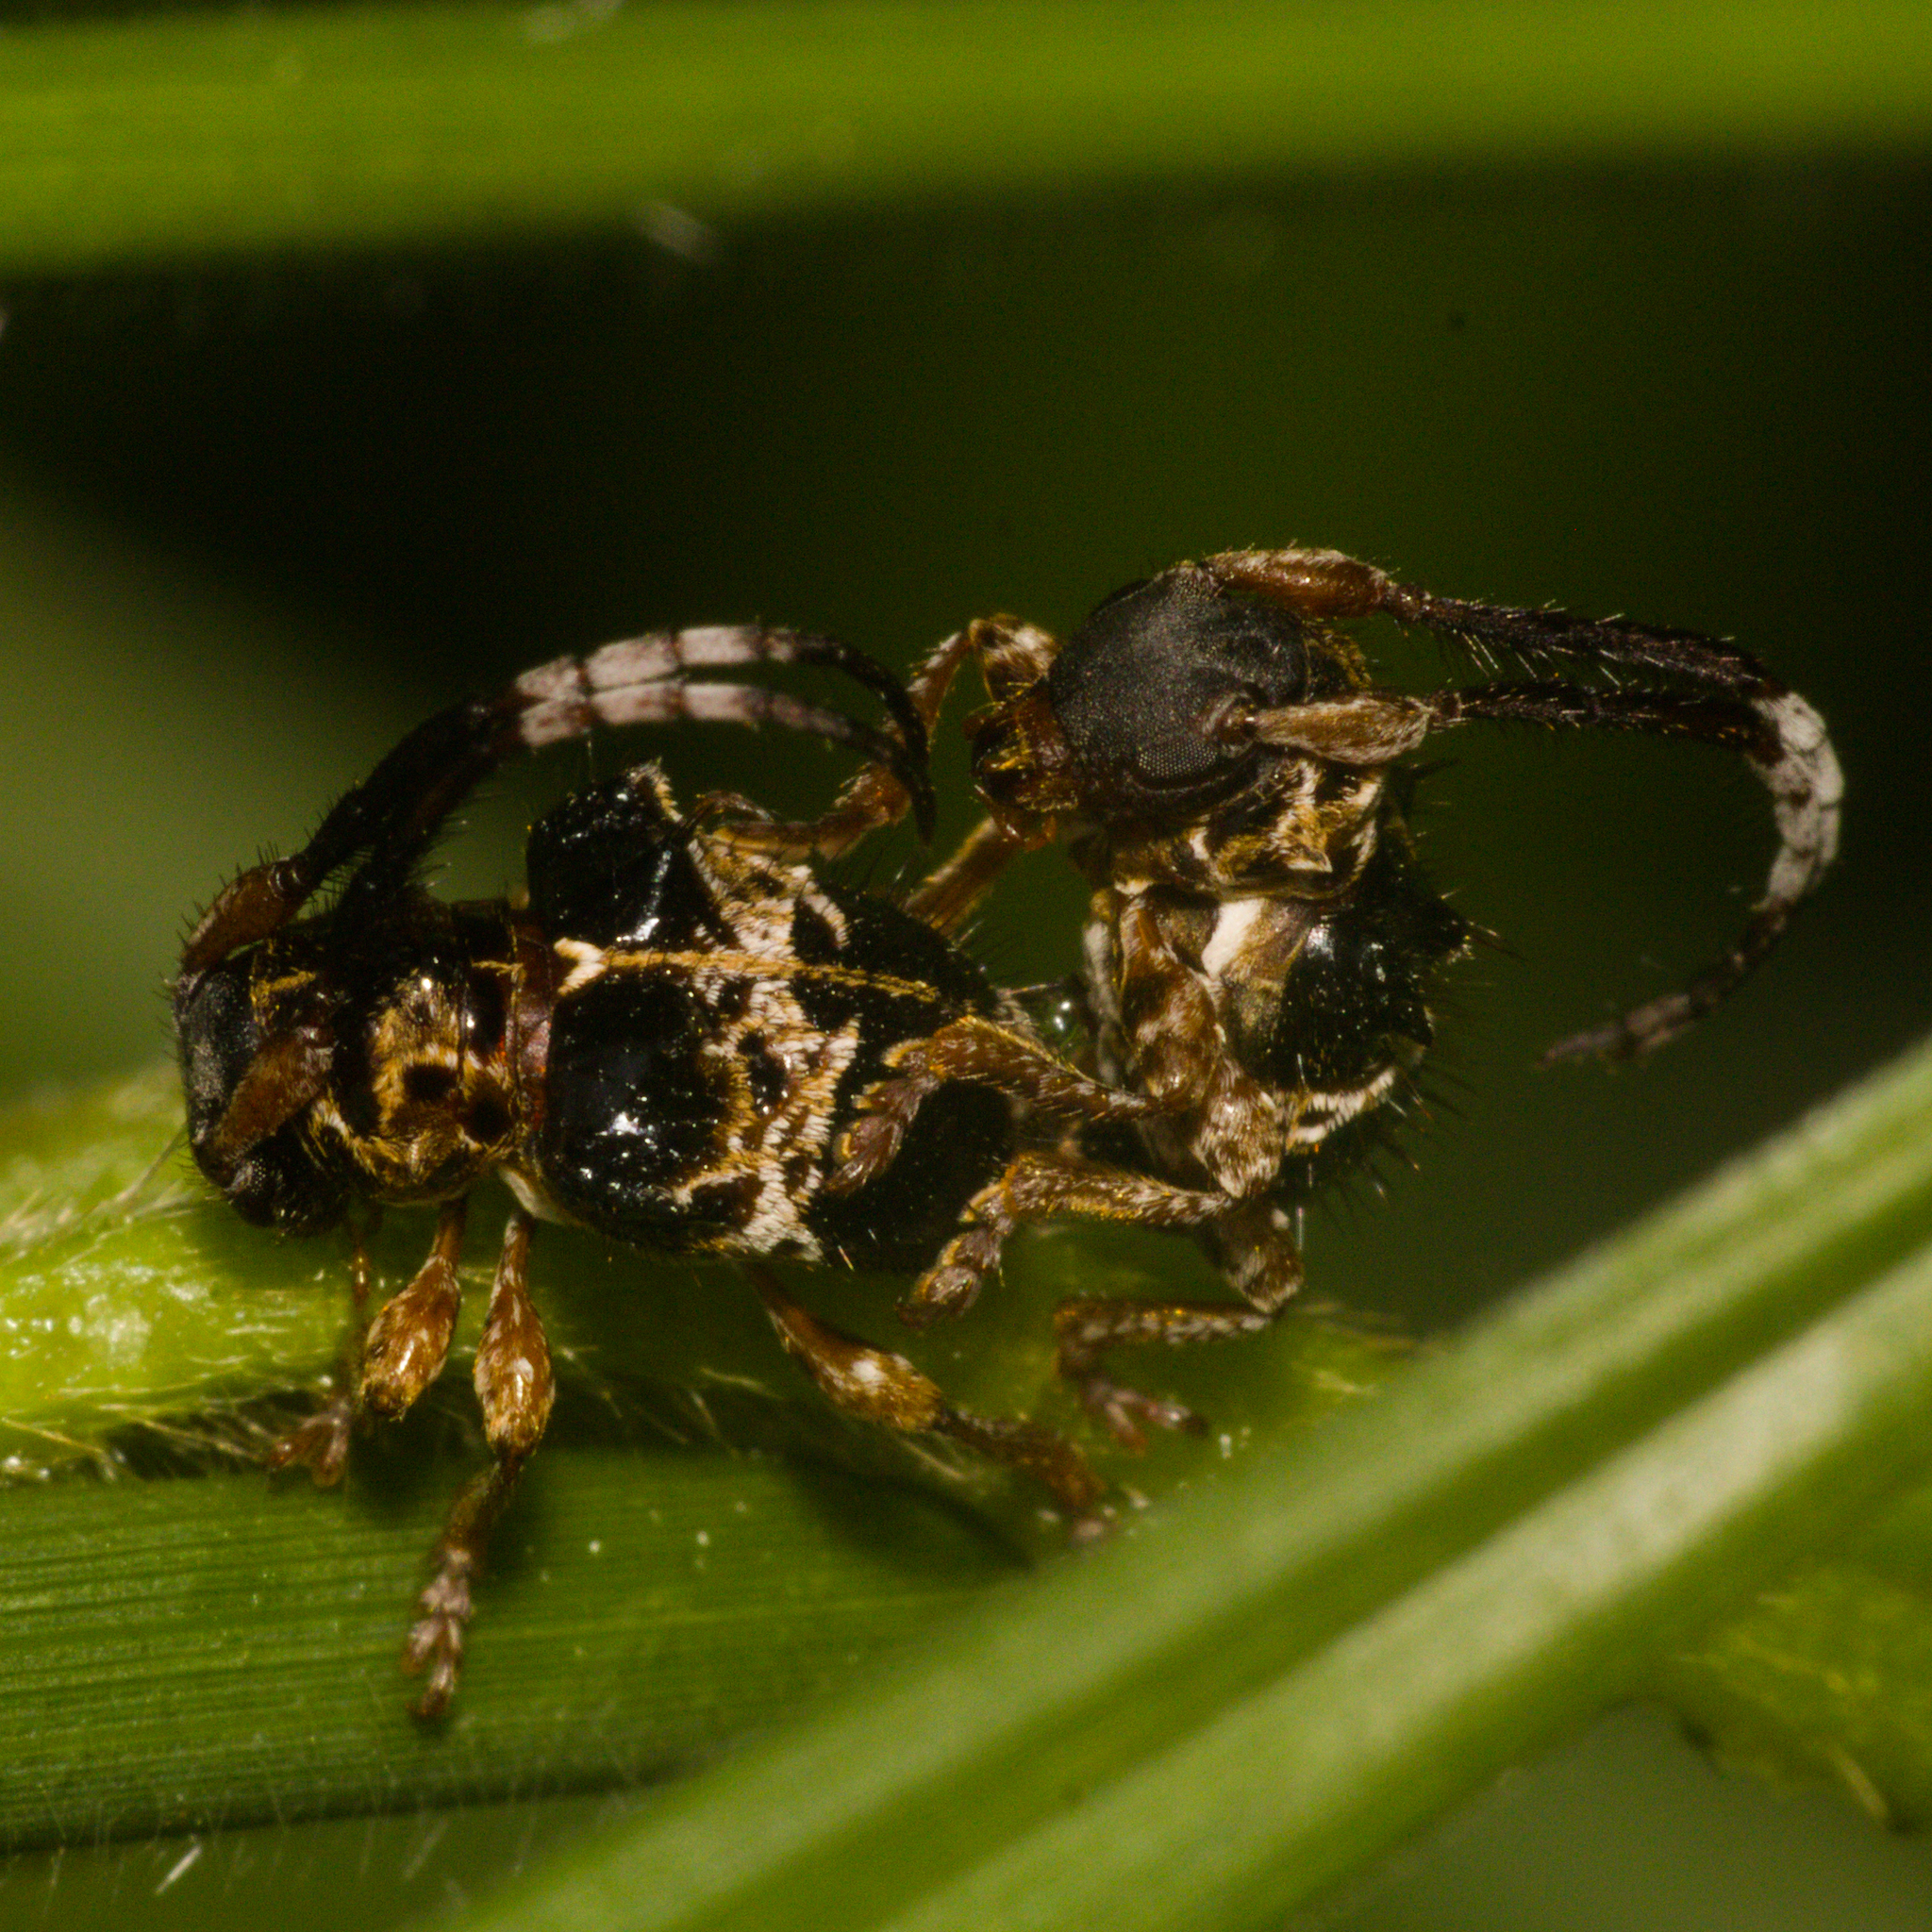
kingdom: Animalia
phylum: Arthropoda
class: Insecta
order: Coleoptera
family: Cerambycidae
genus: Tessarecphora
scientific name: Tessarecphora arachnoides
